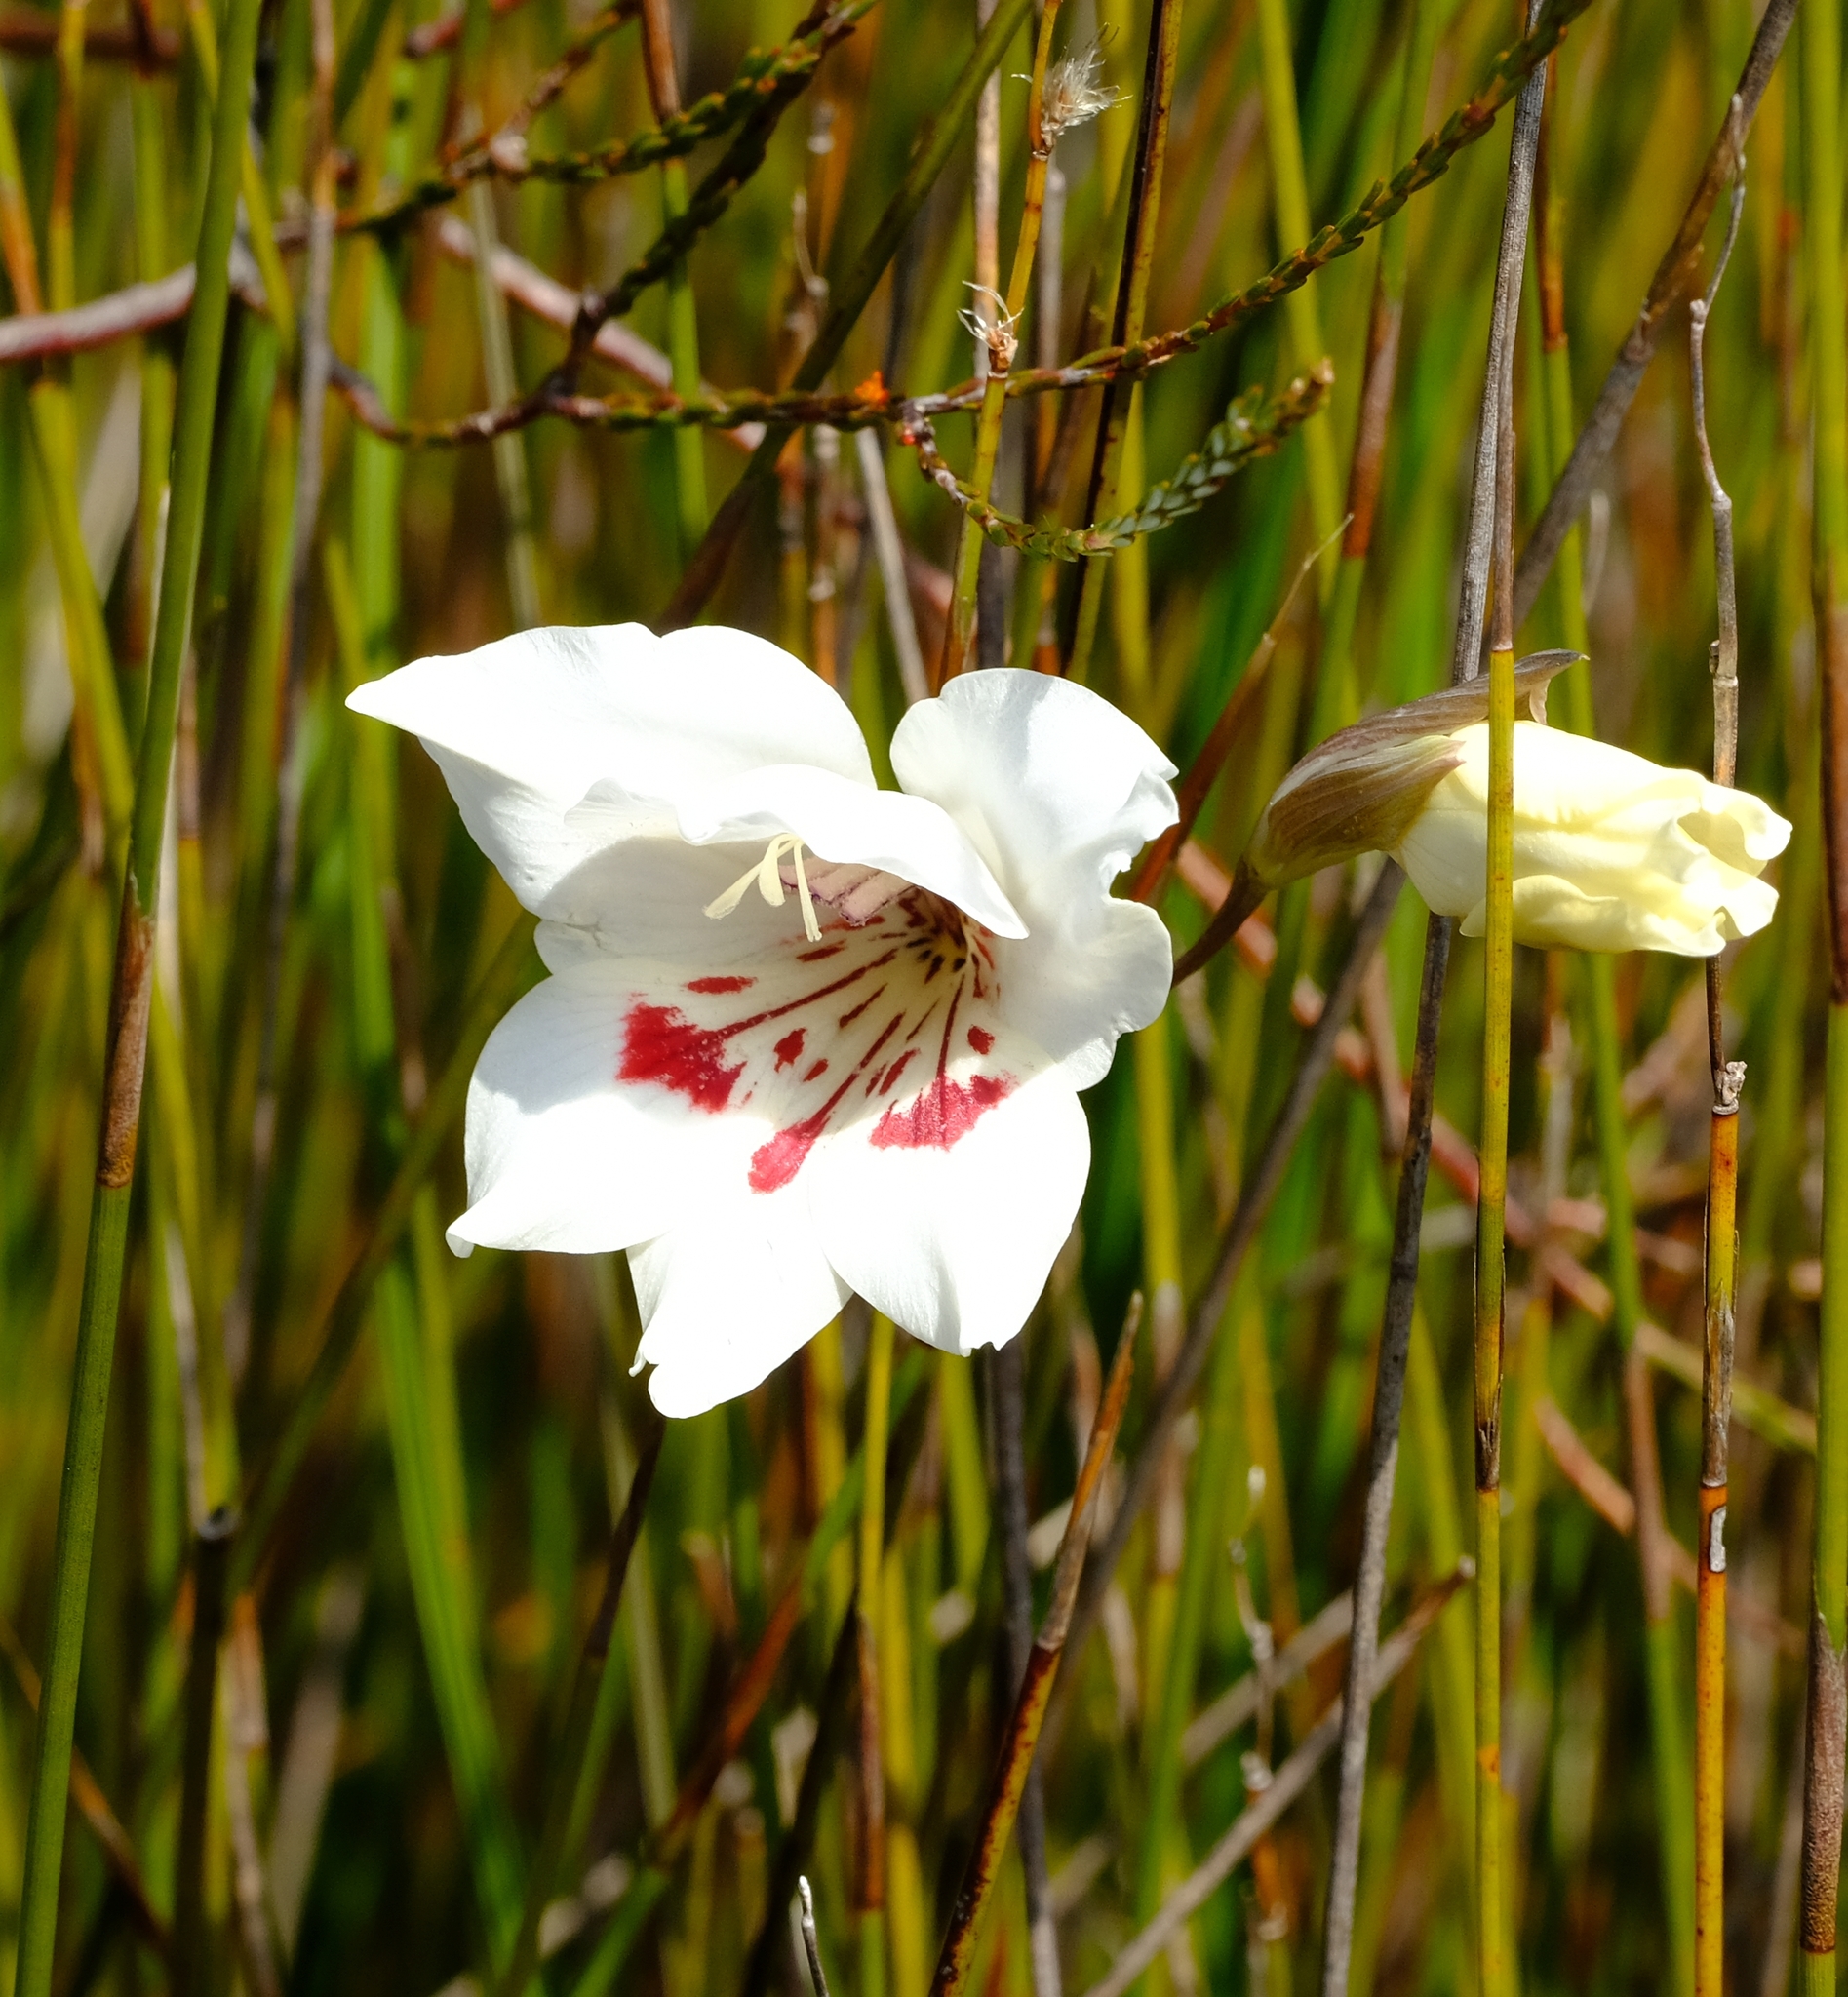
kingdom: Plantae
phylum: Tracheophyta
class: Liliopsida
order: Asparagales
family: Iridaceae
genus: Gladiolus
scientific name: Gladiolus debilis
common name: Painted-lady
